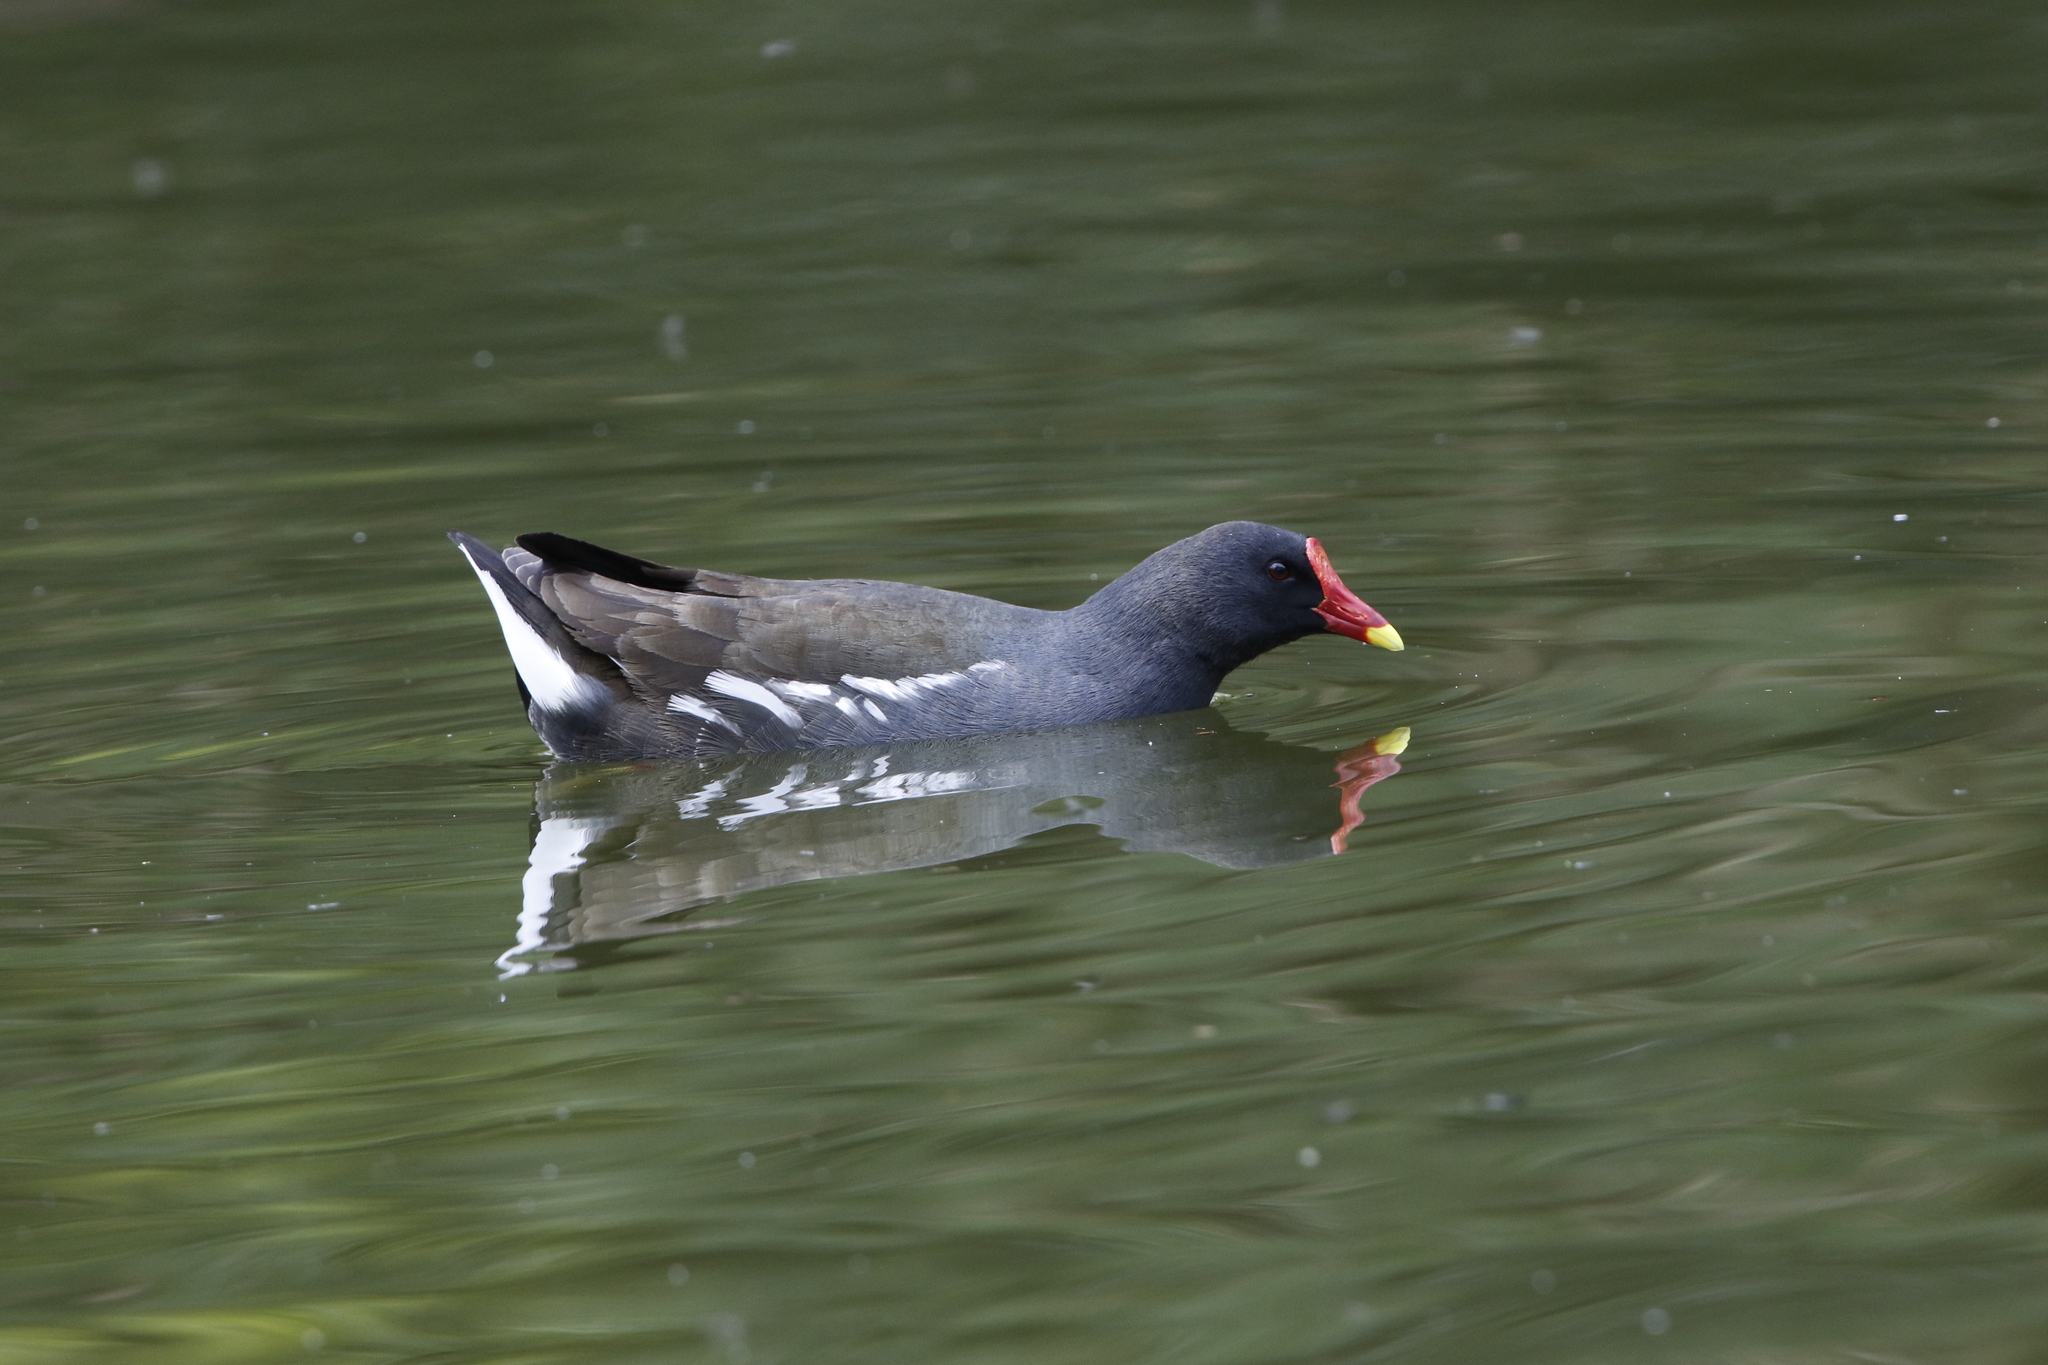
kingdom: Animalia
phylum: Chordata
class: Aves
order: Gruiformes
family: Rallidae
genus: Gallinula
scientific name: Gallinula chloropus
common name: Common moorhen
